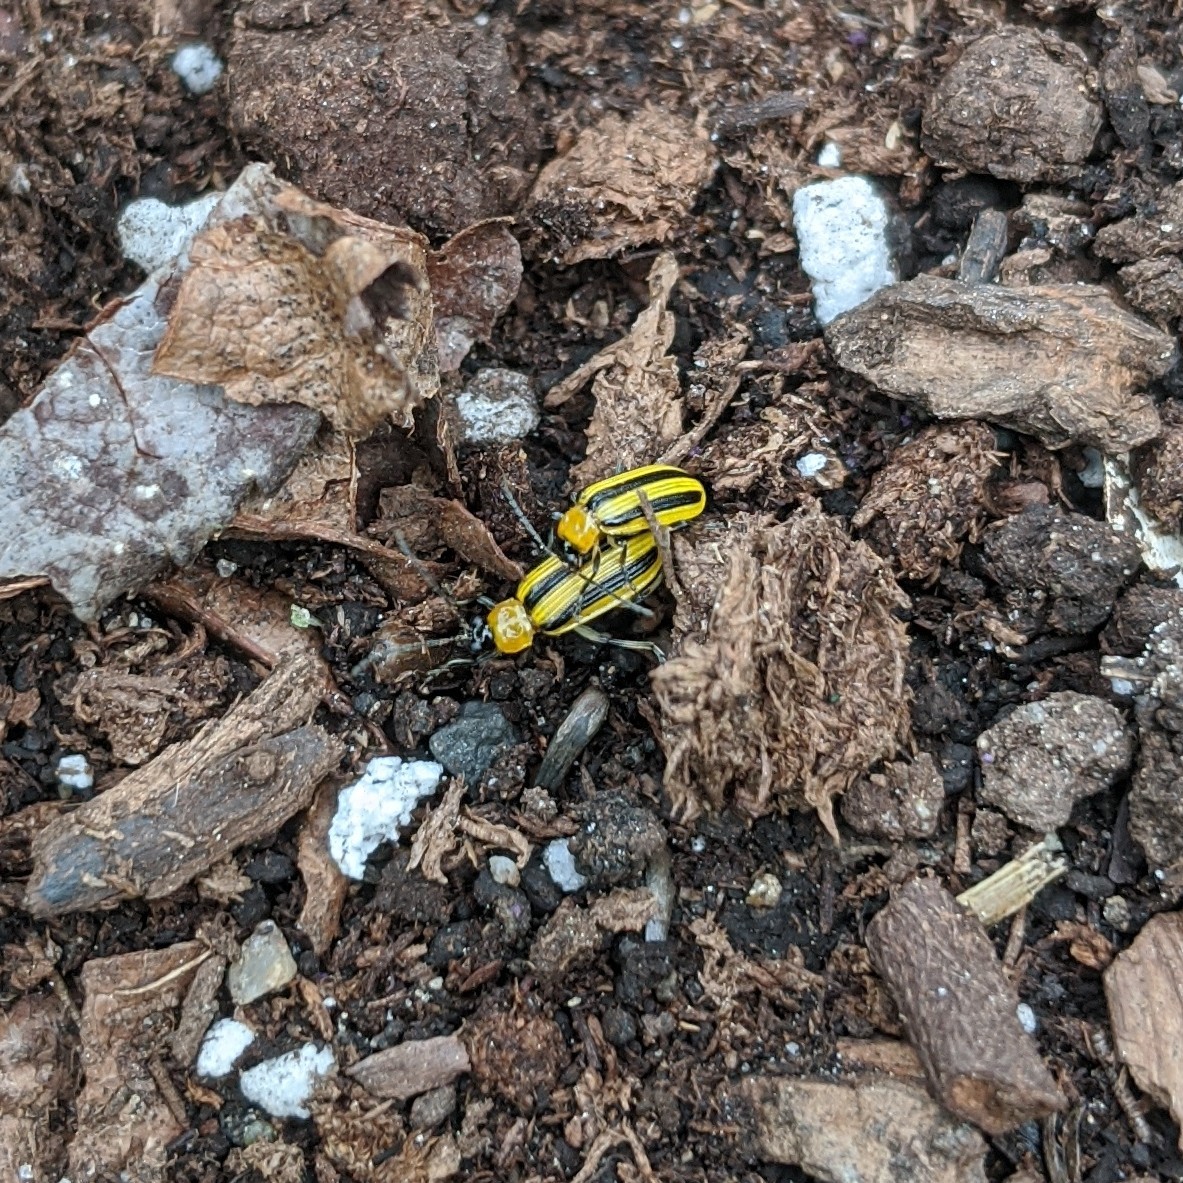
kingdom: Animalia
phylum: Arthropoda
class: Insecta
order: Coleoptera
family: Chrysomelidae
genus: Acalymma
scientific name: Acalymma vittatum
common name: Striped cucumber beetle
